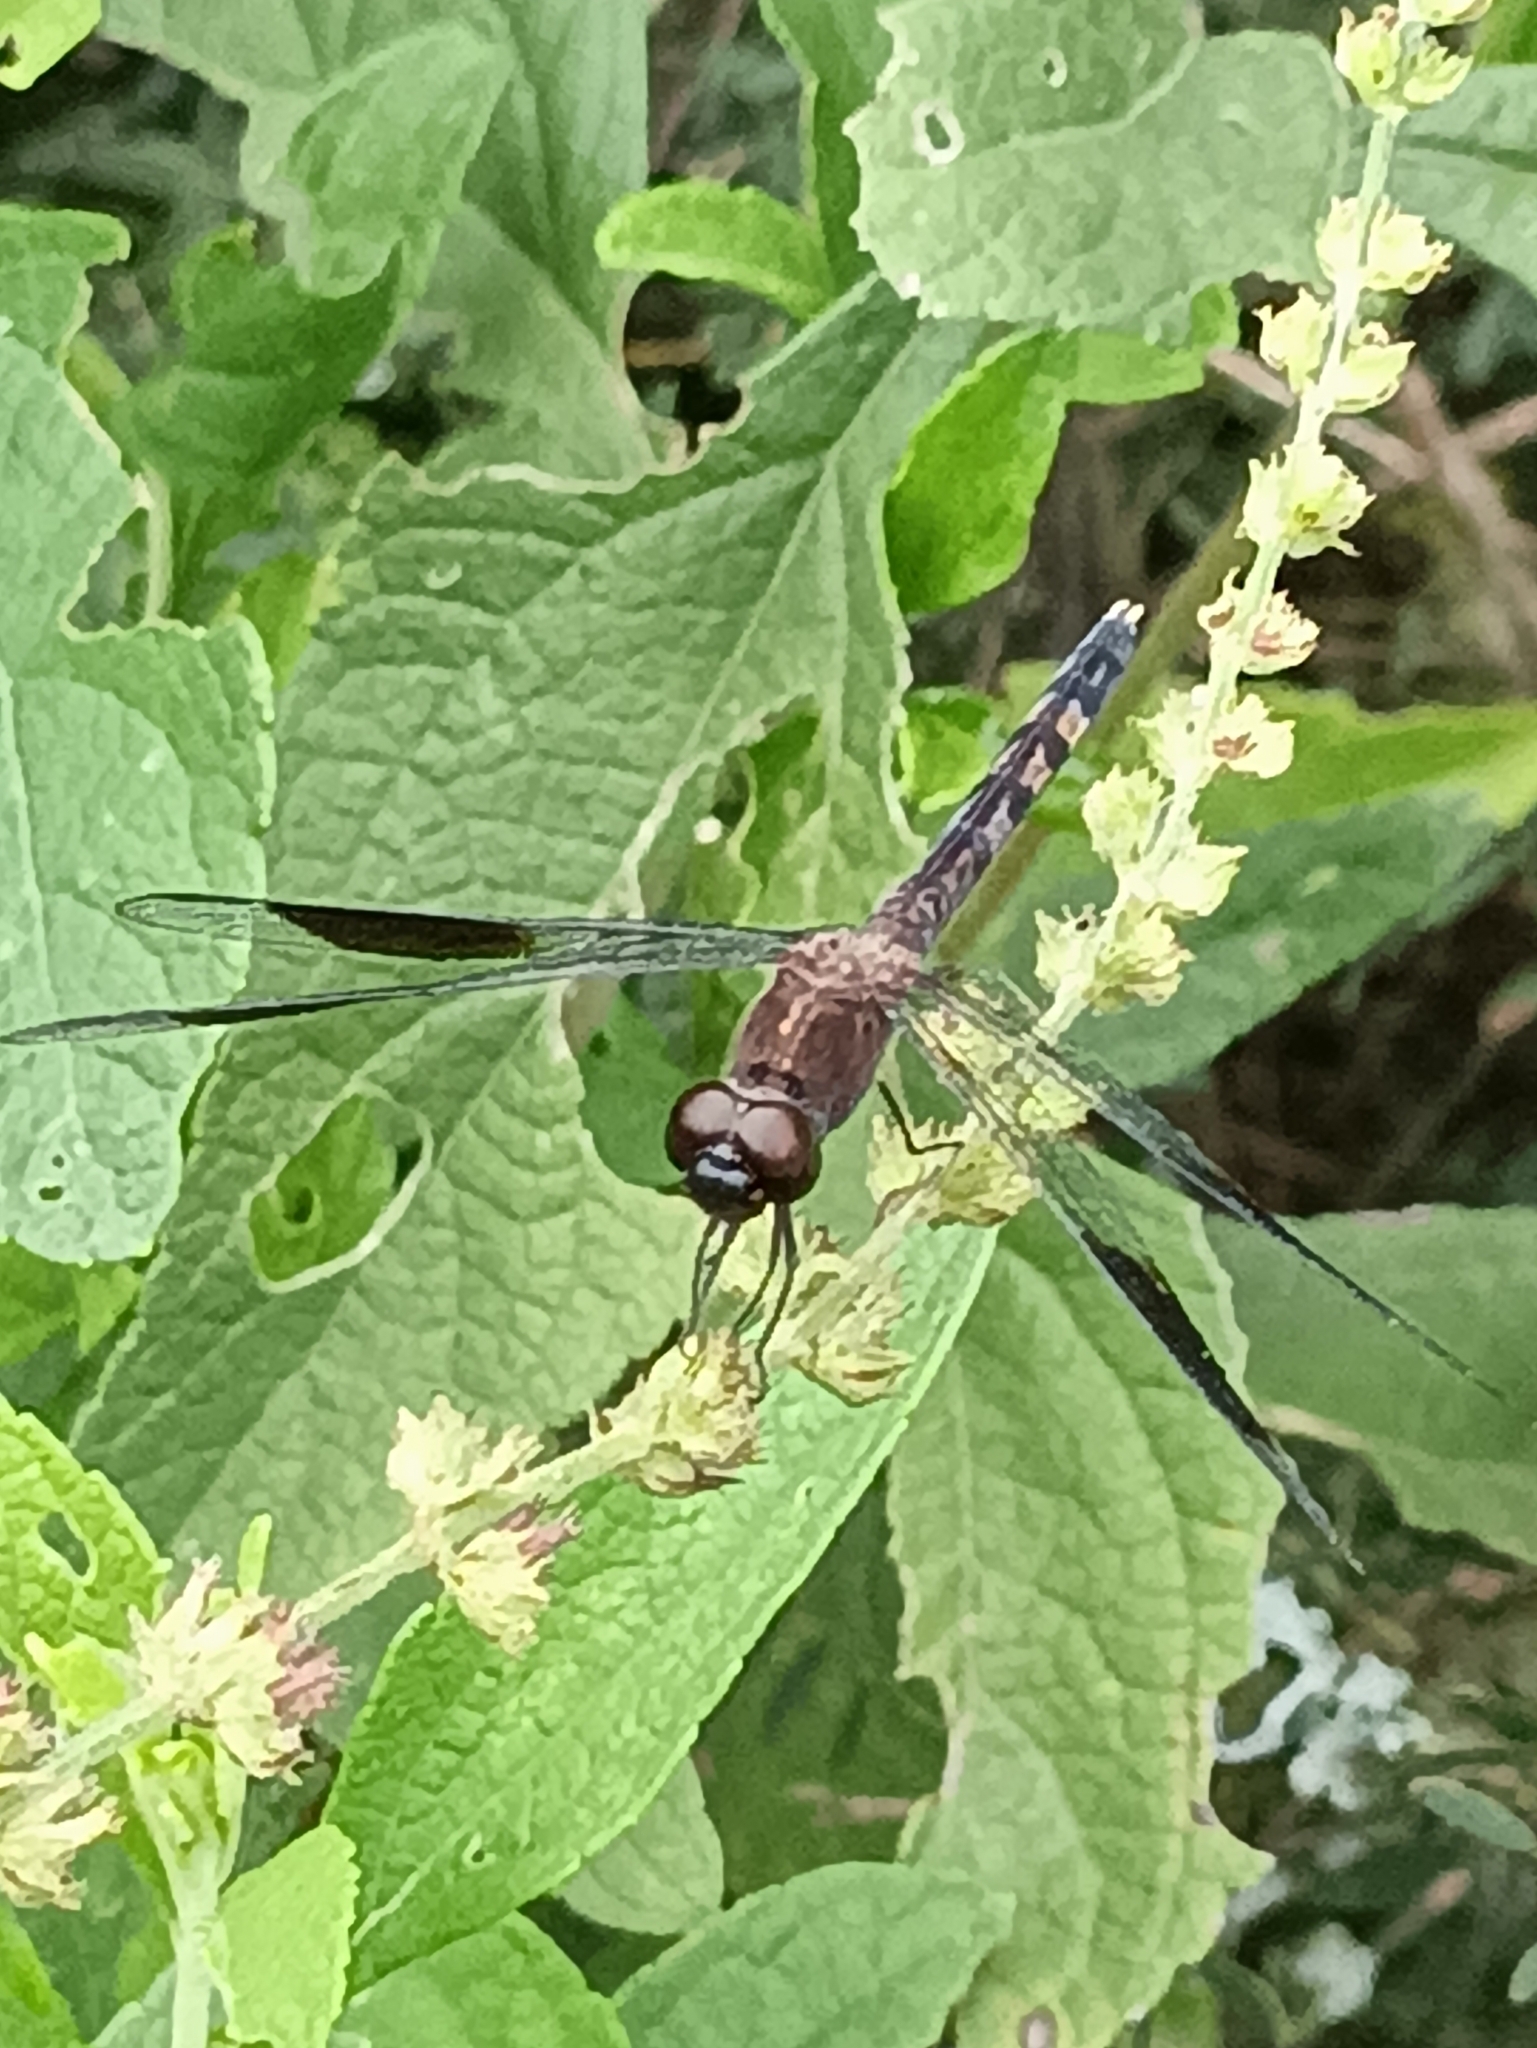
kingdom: Animalia
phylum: Arthropoda
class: Insecta
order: Odonata
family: Libellulidae
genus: Erythrodiplax
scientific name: Erythrodiplax umbrata
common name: Band-winged dragonlet
